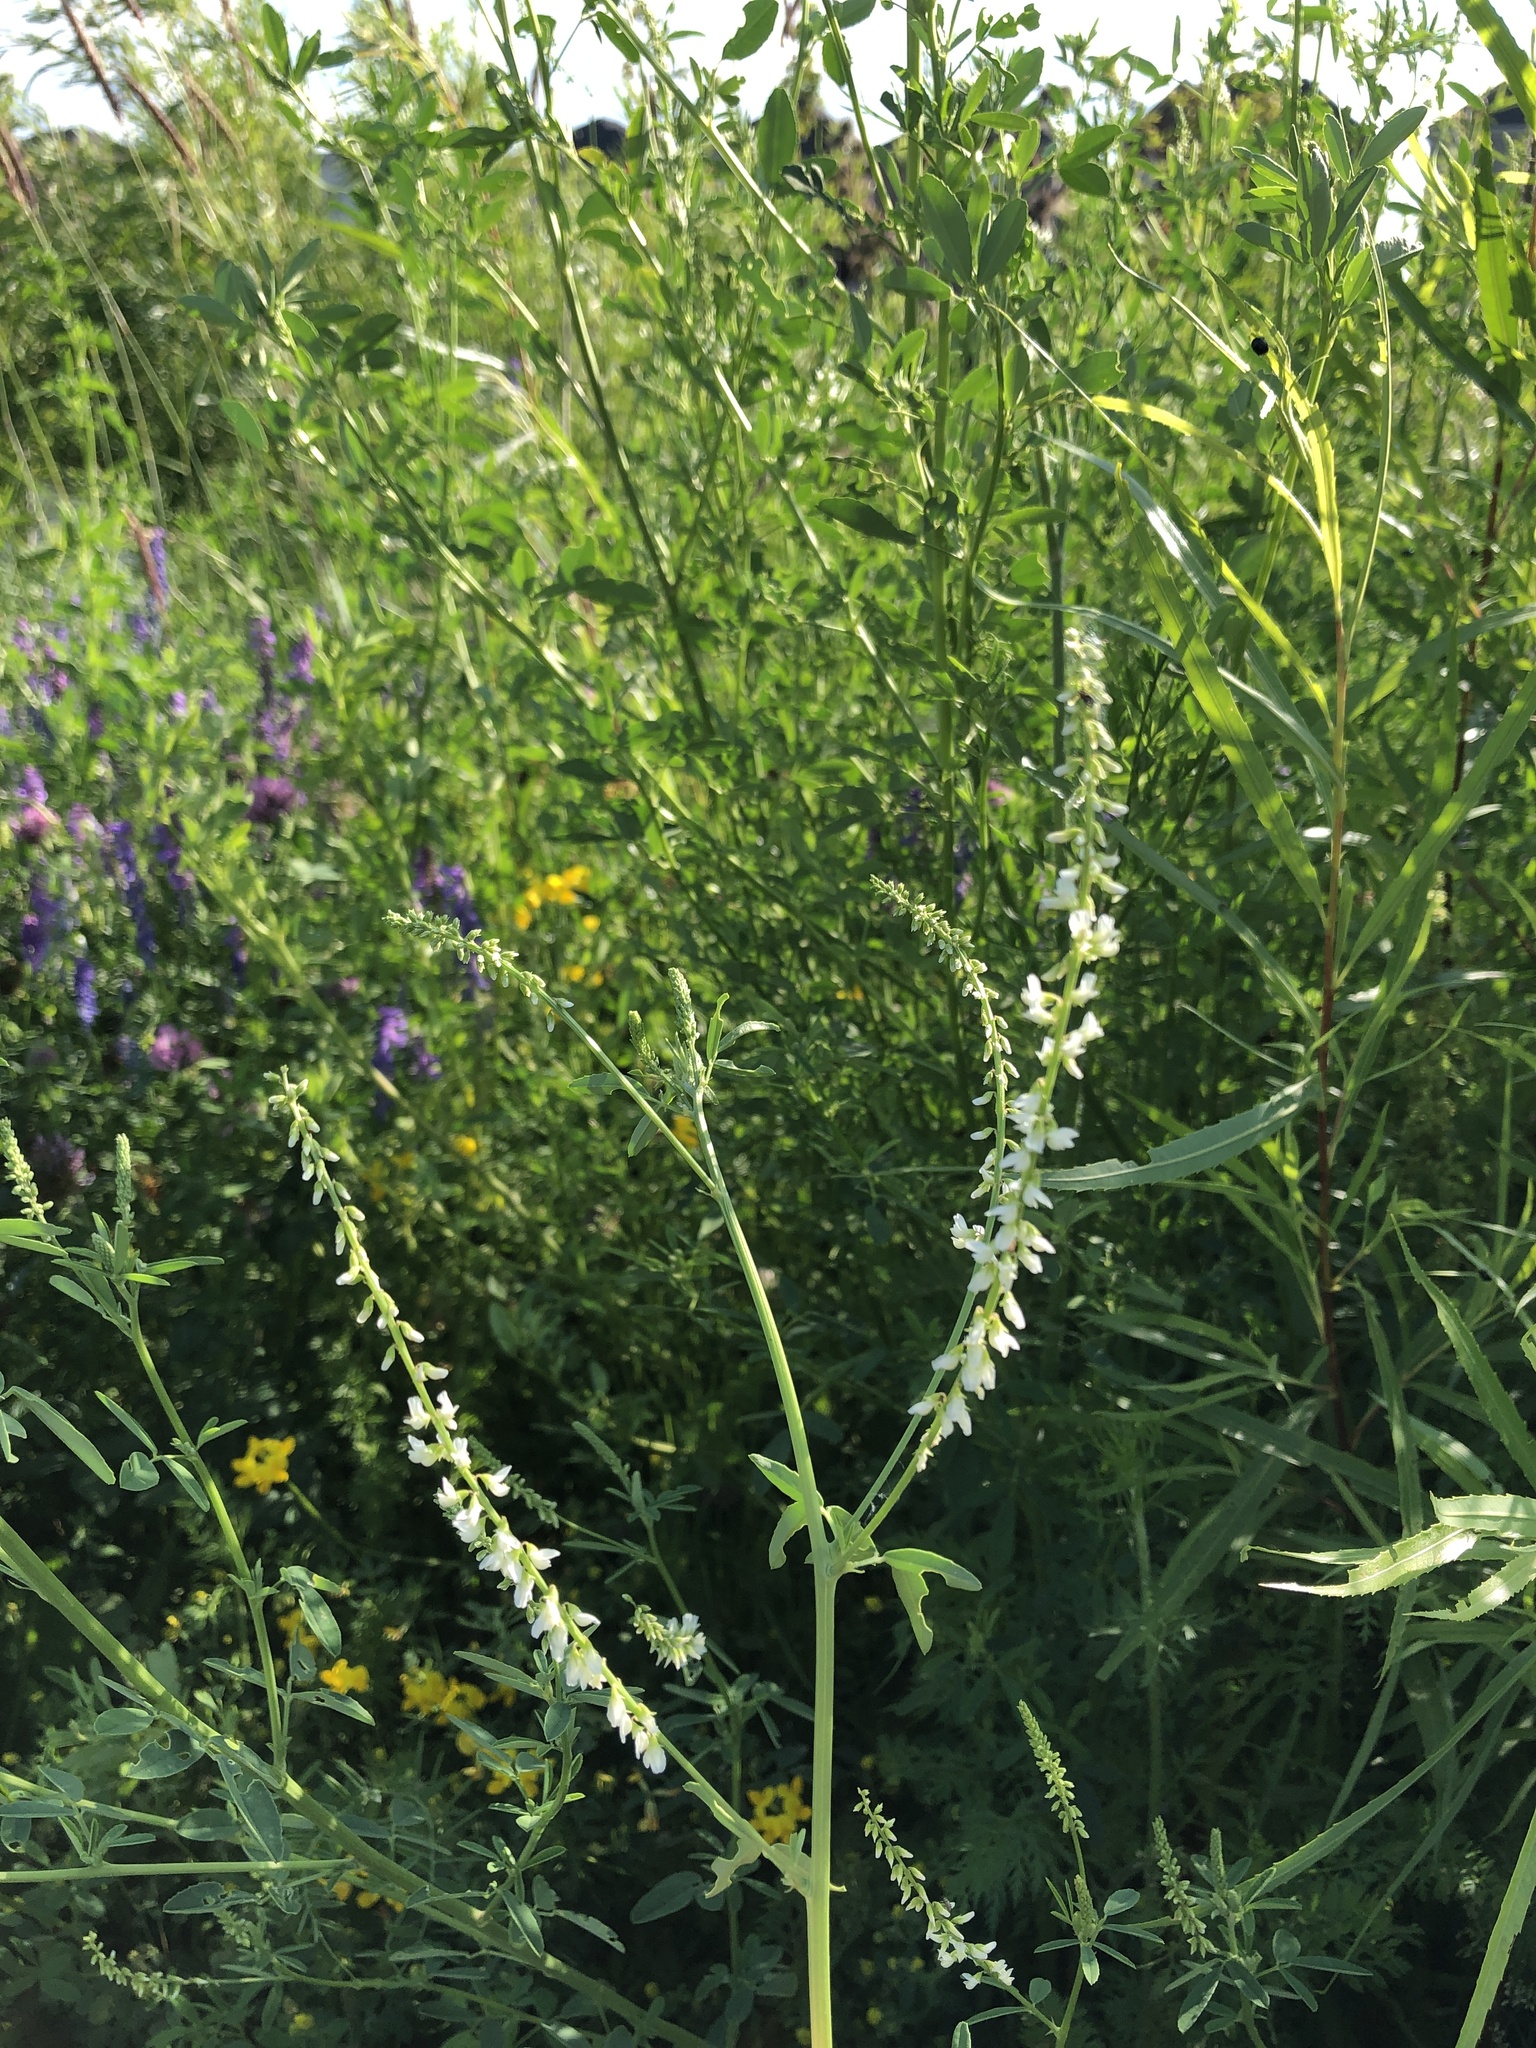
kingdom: Plantae
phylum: Tracheophyta
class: Magnoliopsida
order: Fabales
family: Fabaceae
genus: Melilotus
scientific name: Melilotus albus
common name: White melilot
